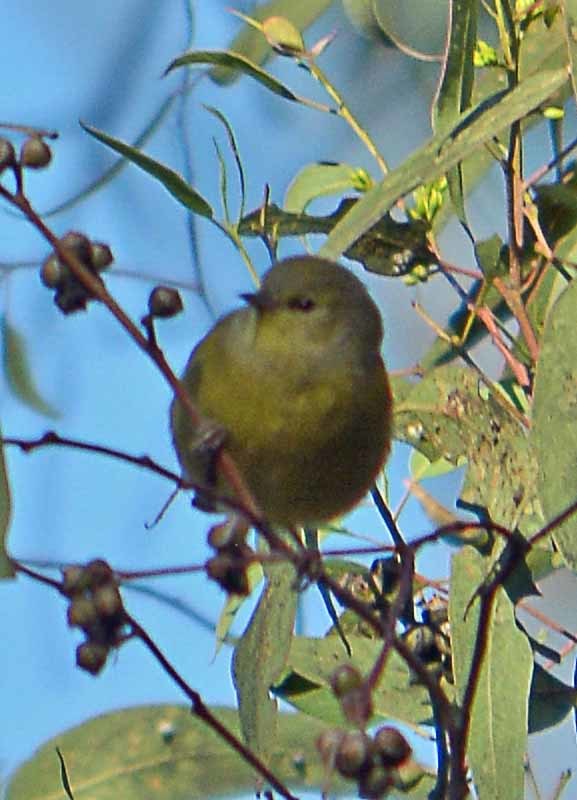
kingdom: Animalia
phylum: Chordata
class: Aves
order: Passeriformes
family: Parulidae
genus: Leiothlypis
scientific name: Leiothlypis celata
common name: Orange-crowned warbler
